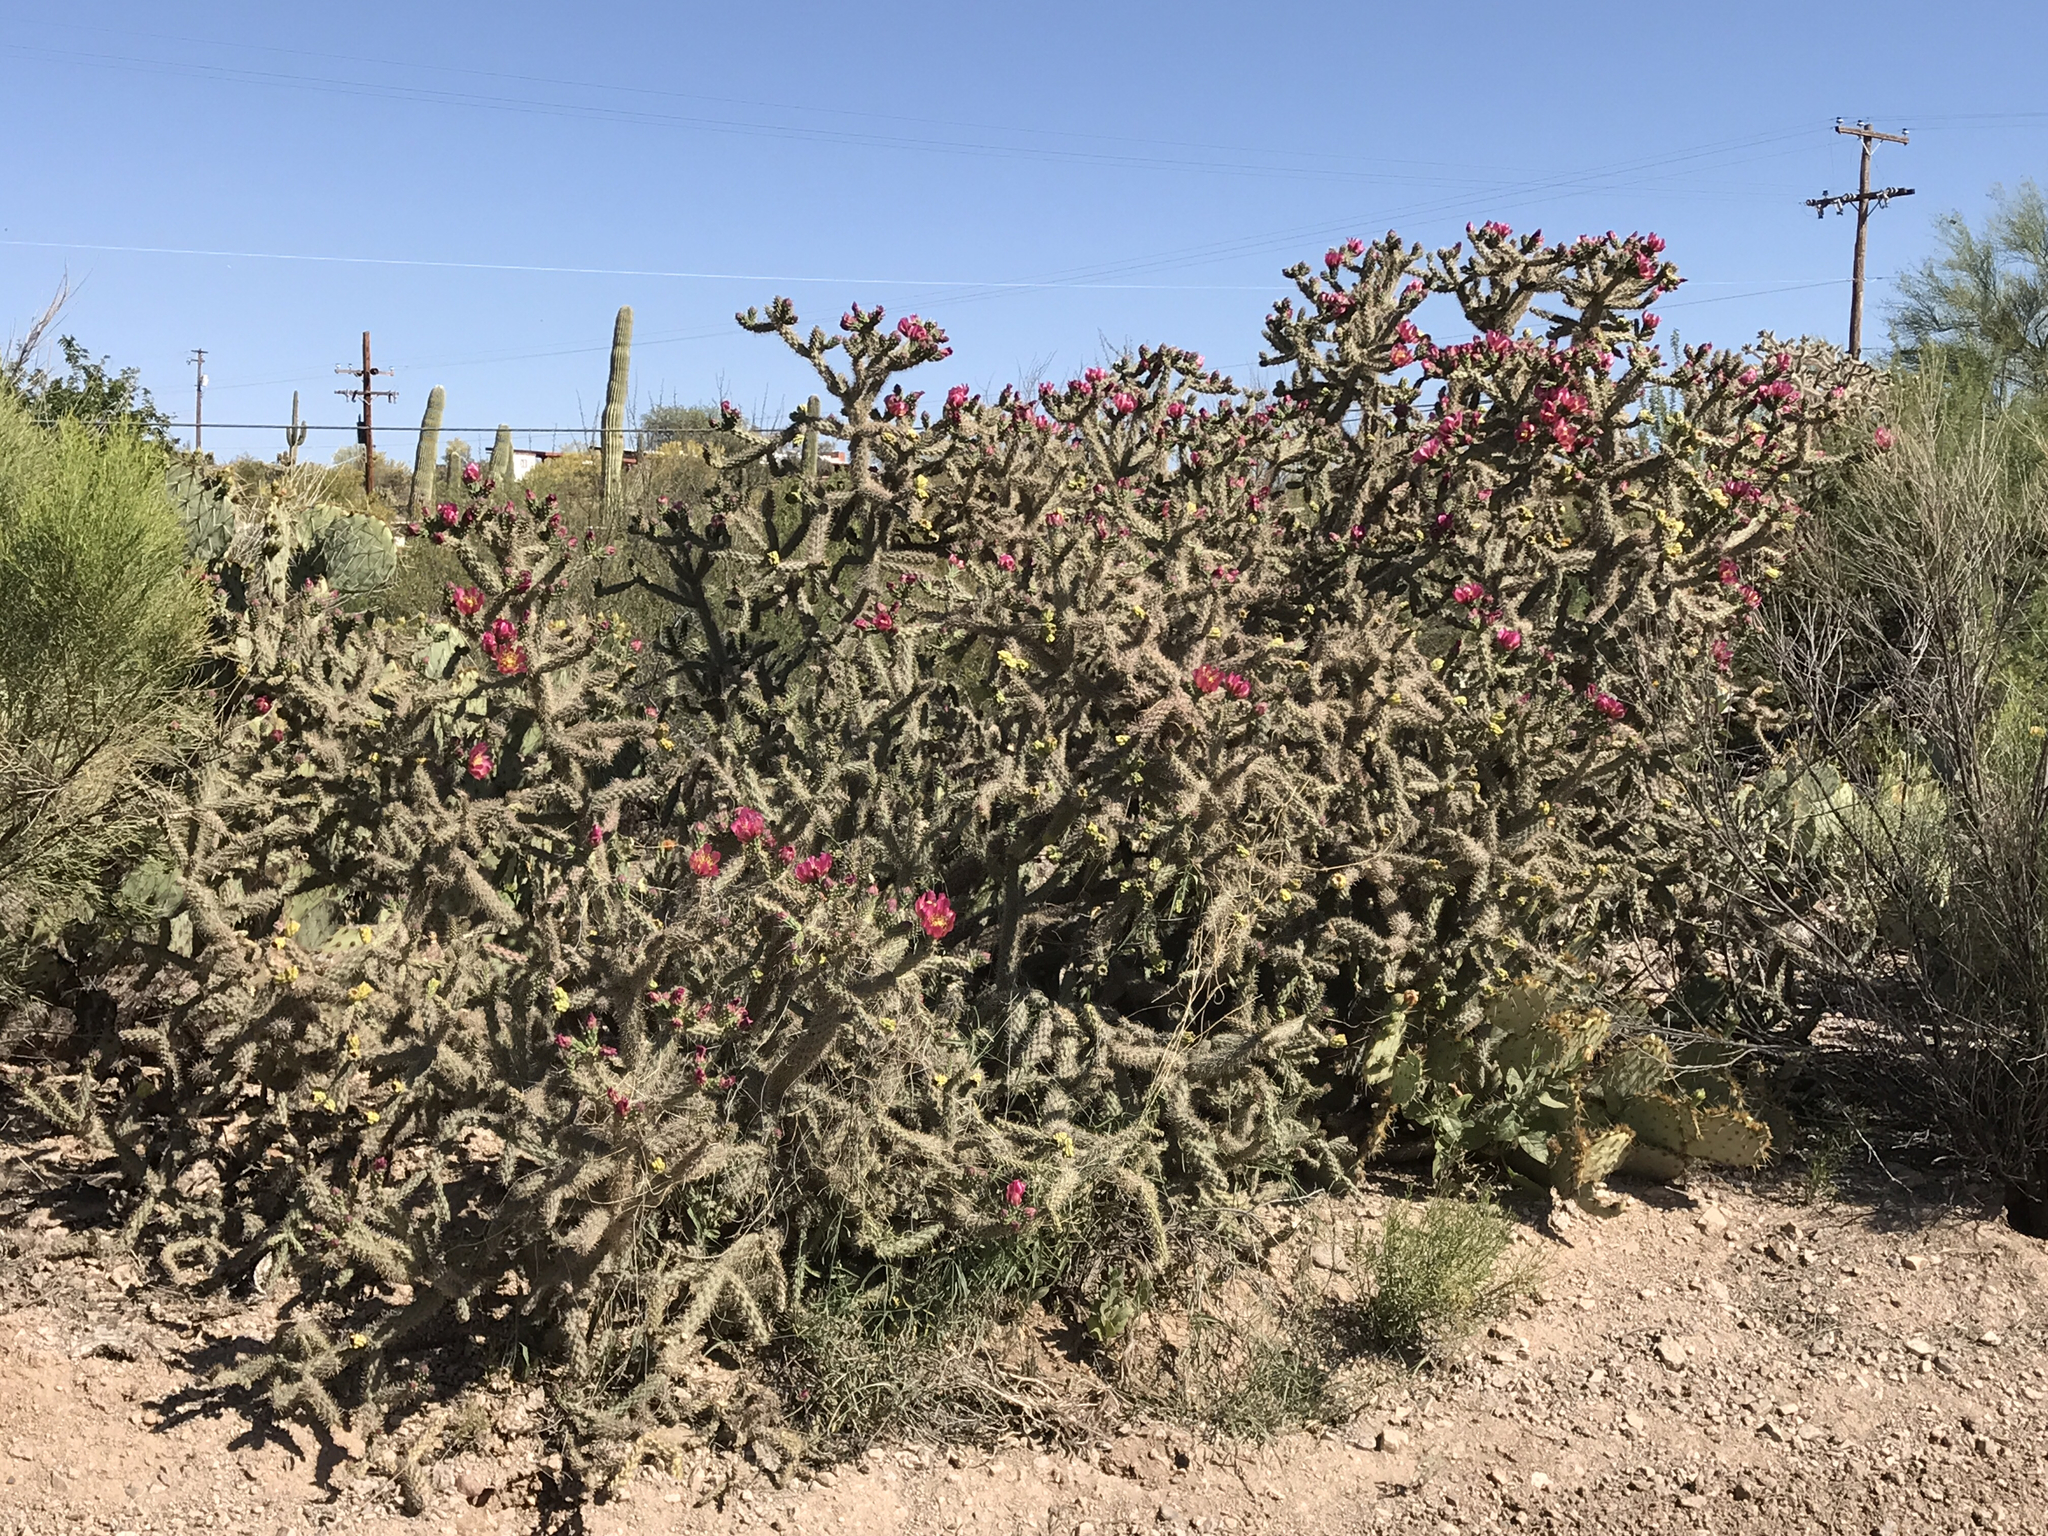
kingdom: Plantae
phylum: Tracheophyta
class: Magnoliopsida
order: Caryophyllales
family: Cactaceae
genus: Cylindropuntia
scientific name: Cylindropuntia imbricata
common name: Candelabrum cactus
